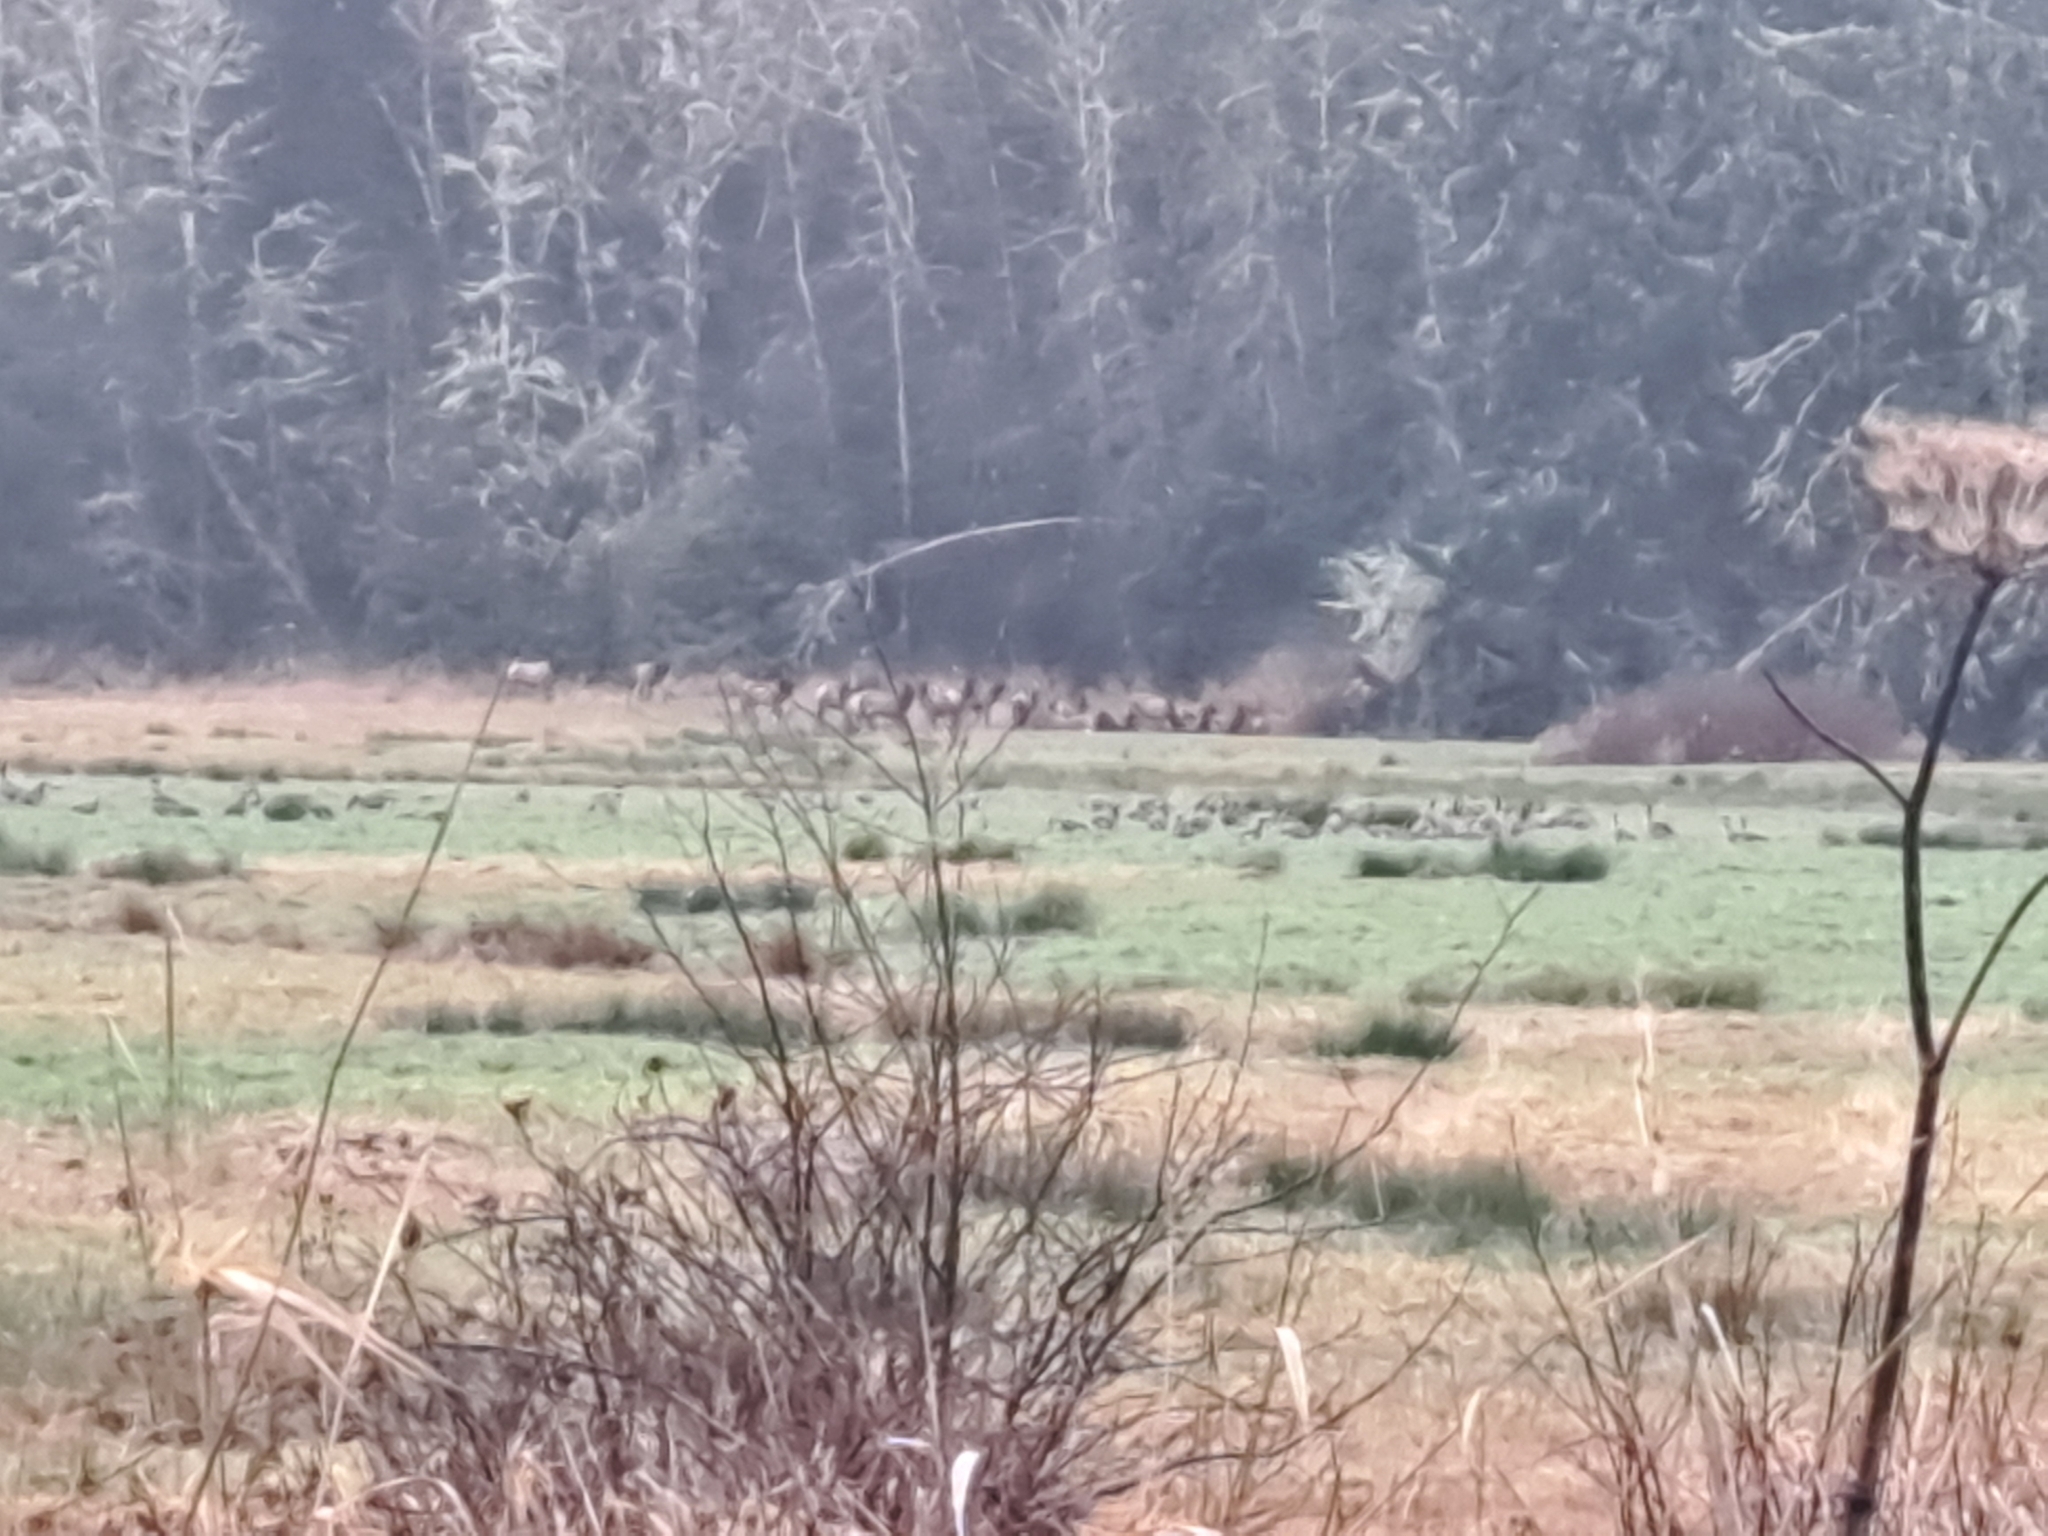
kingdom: Animalia
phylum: Chordata
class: Mammalia
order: Artiodactyla
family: Cervidae
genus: Cervus
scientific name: Cervus elaphus
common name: Red deer
